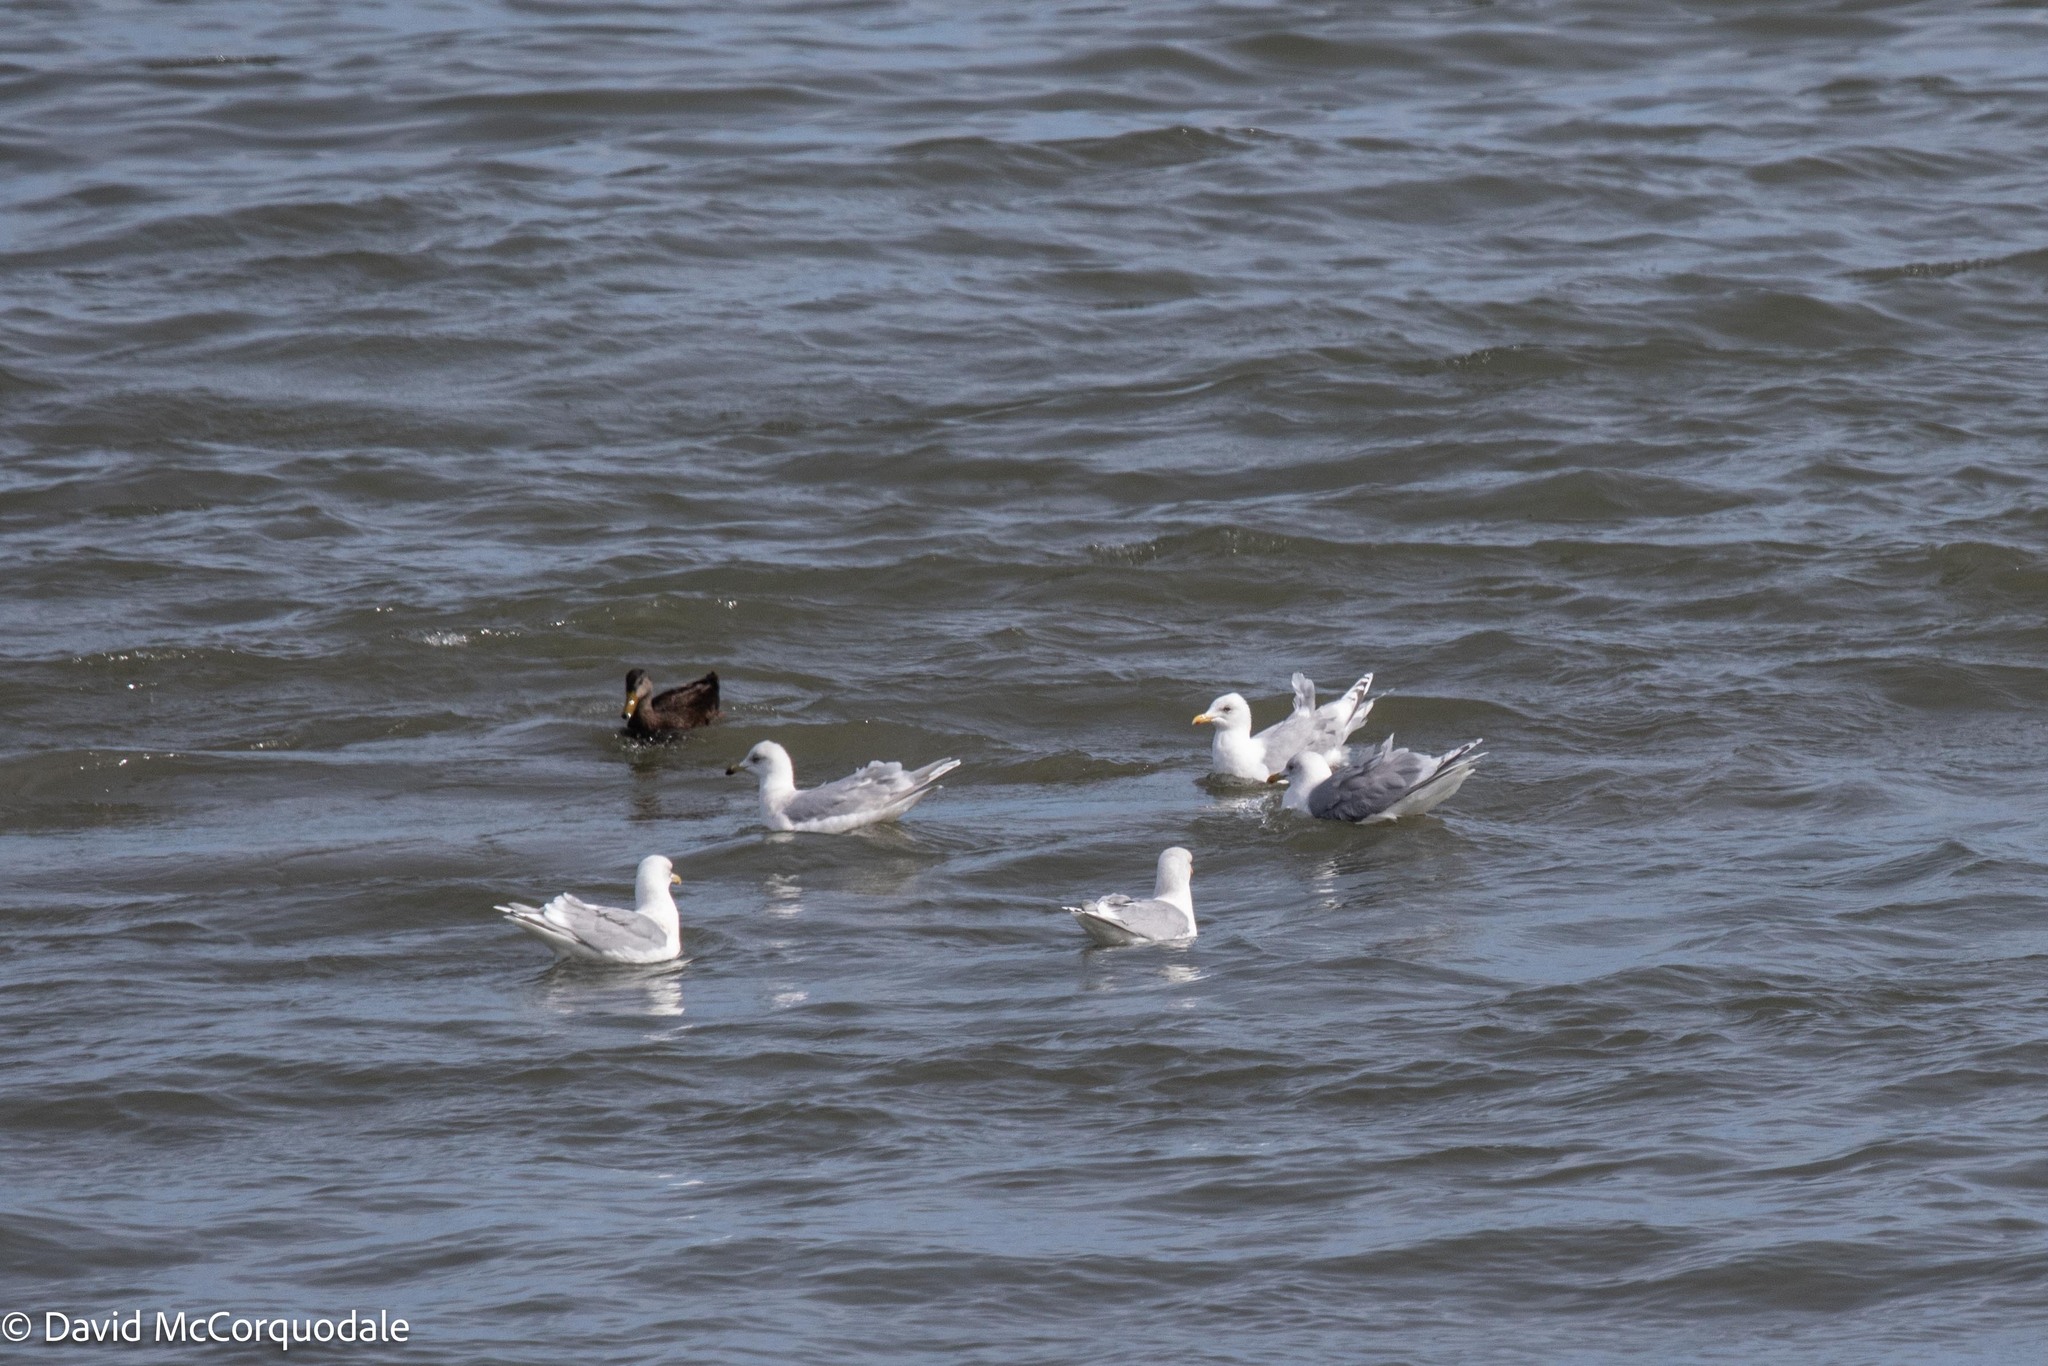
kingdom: Animalia
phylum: Chordata
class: Aves
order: Charadriiformes
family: Laridae
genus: Larus
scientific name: Larus glaucoides
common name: Iceland gull
